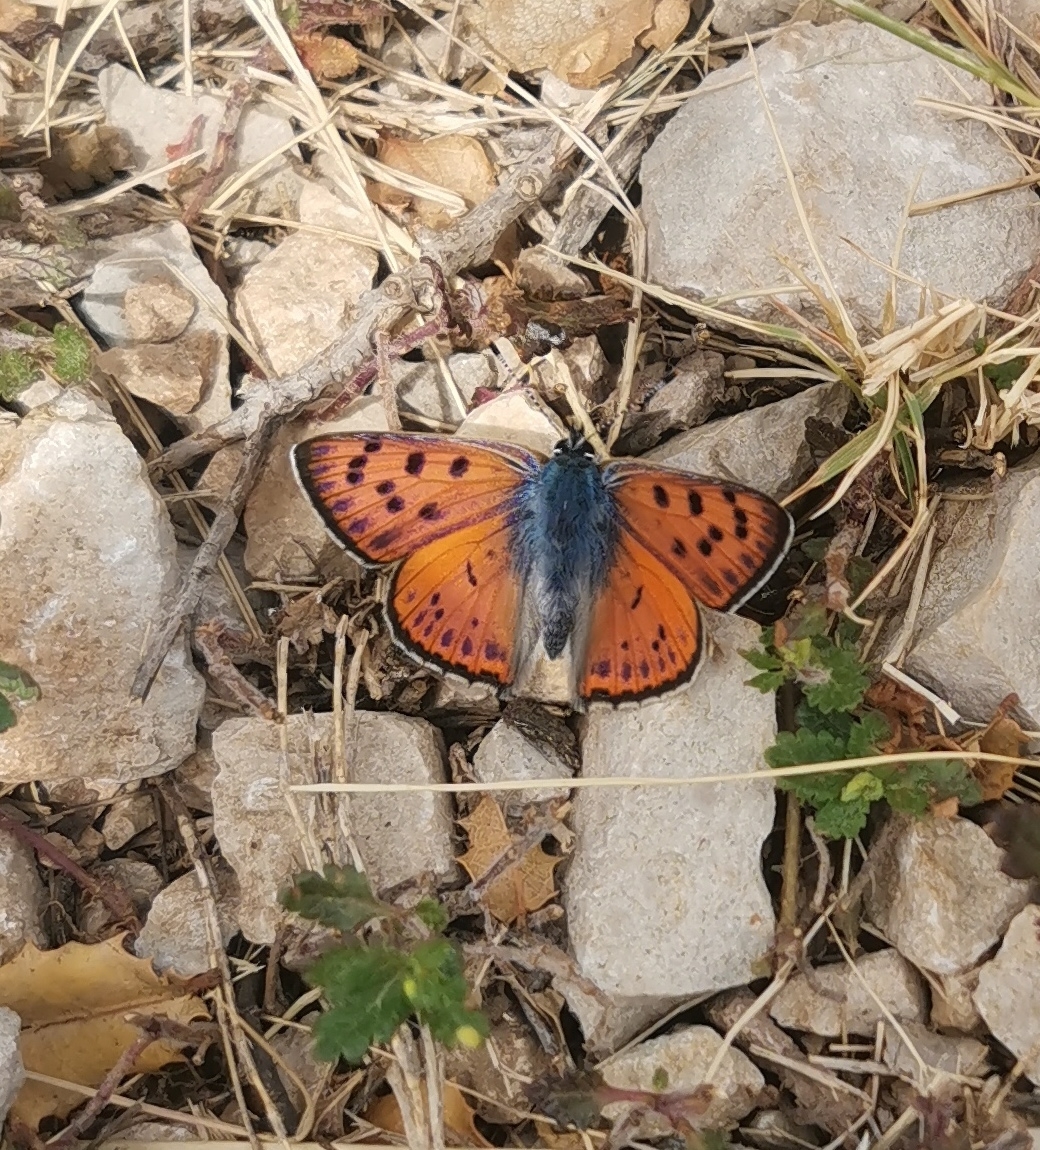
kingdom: Animalia
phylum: Arthropoda
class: Insecta
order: Lepidoptera
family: Lycaenidae
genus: Lycaena
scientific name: Lycaena alciphron
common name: Purple-shot copper
